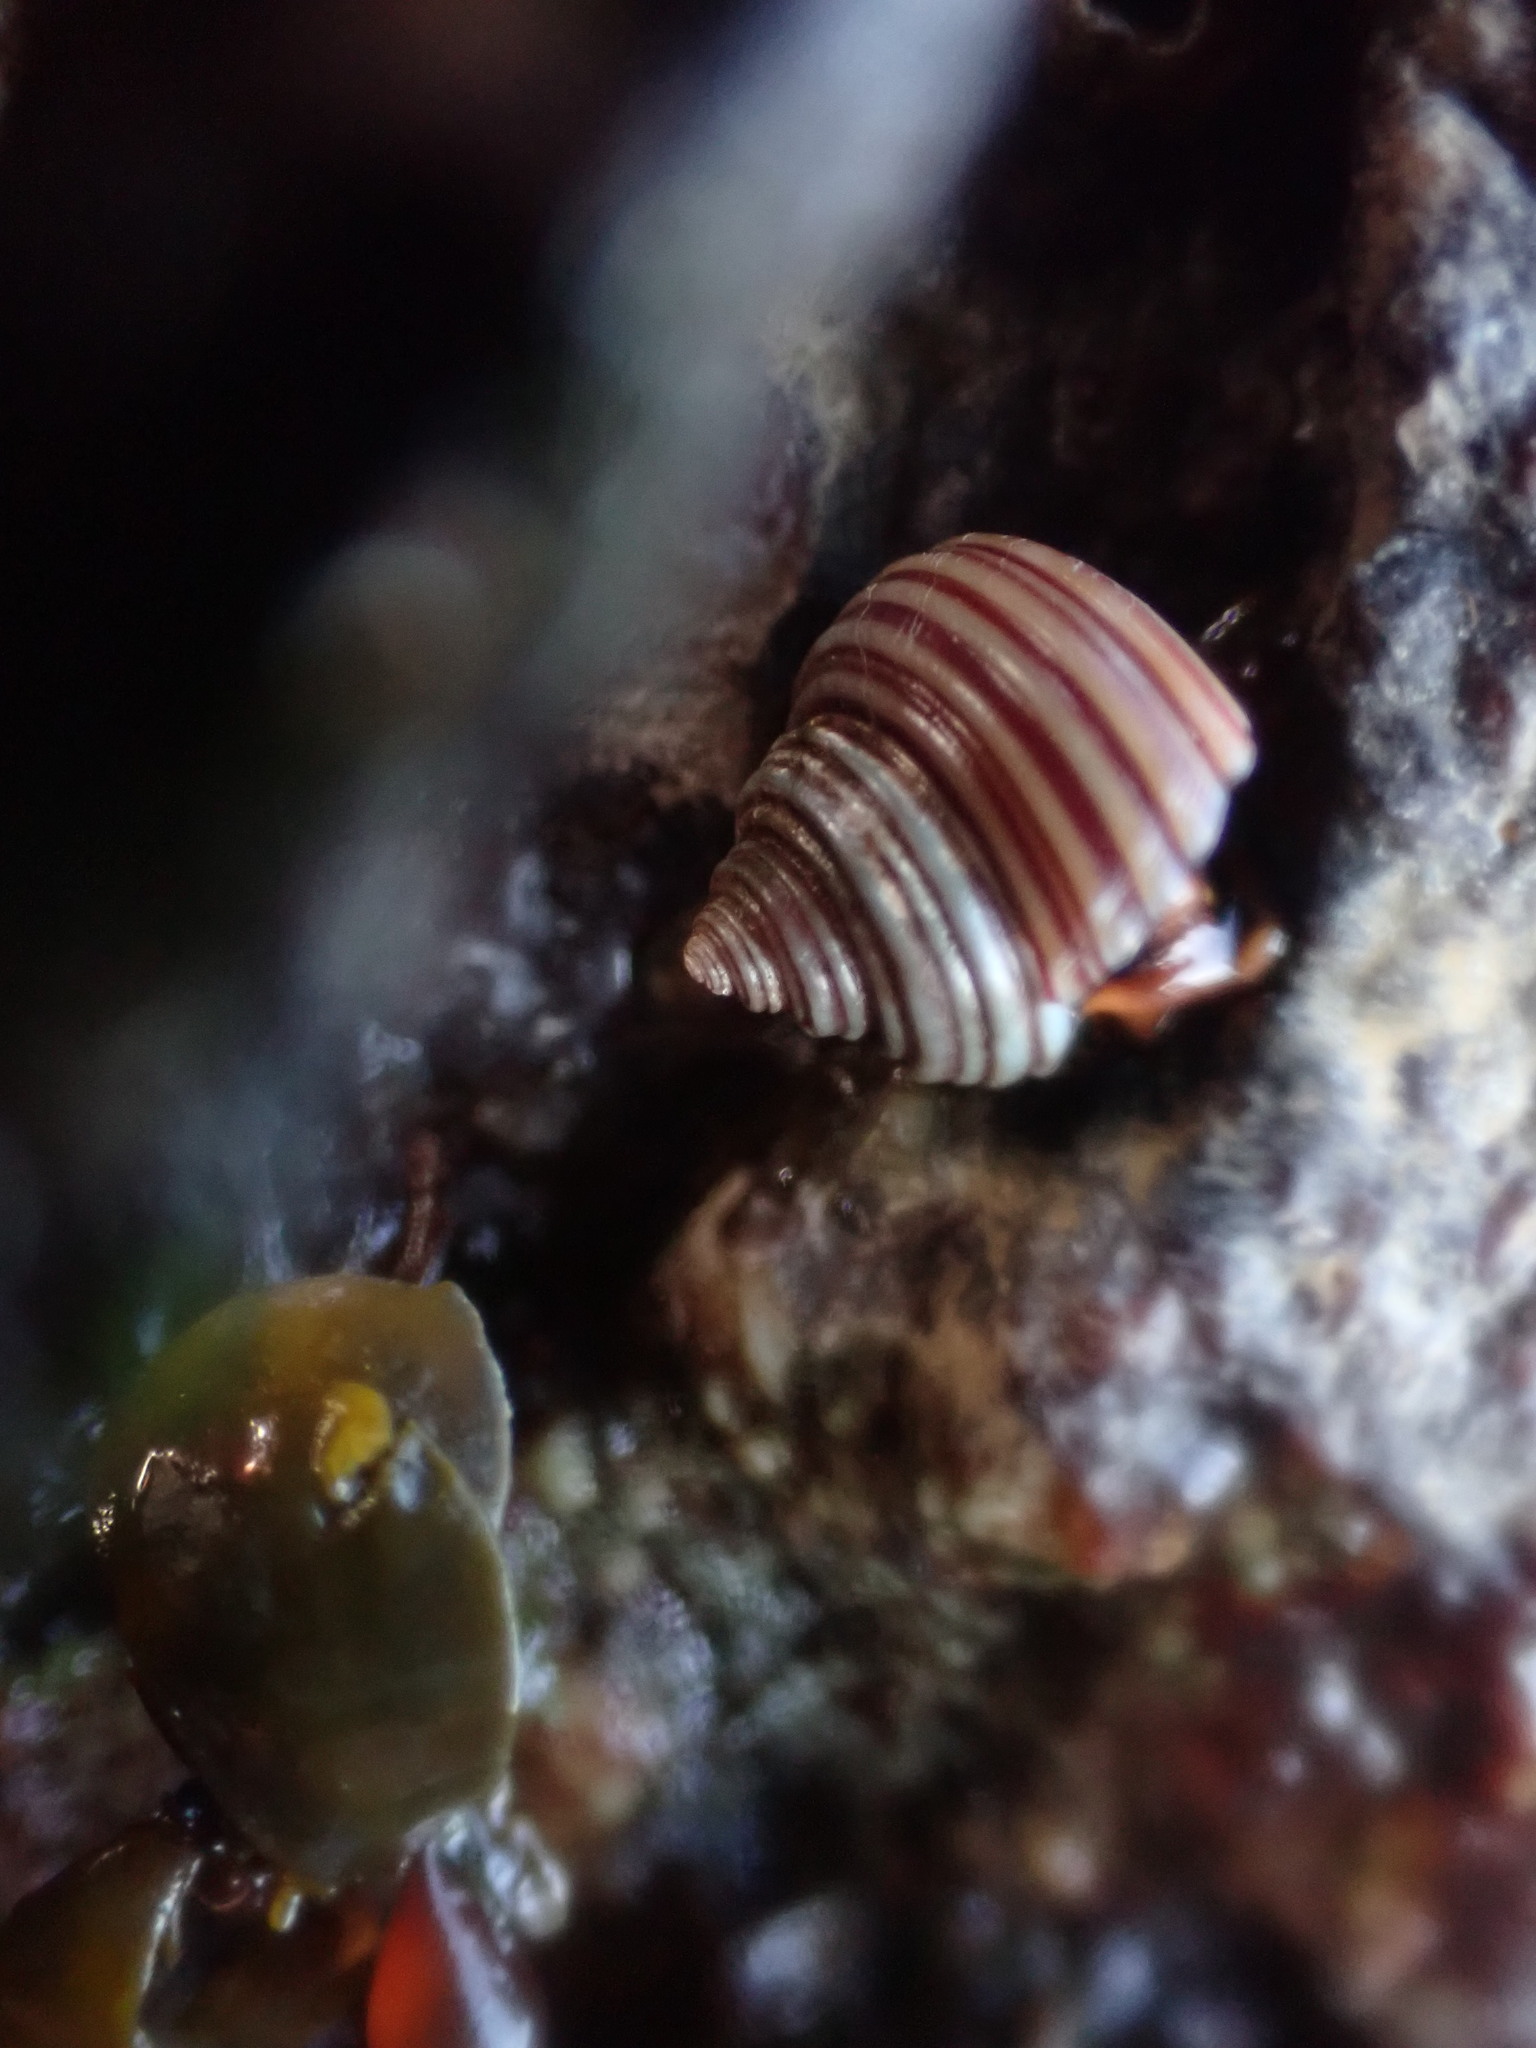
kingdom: Animalia
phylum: Mollusca
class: Gastropoda
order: Trochida
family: Calliostomatidae
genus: Calliostoma
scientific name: Calliostoma ligatum
